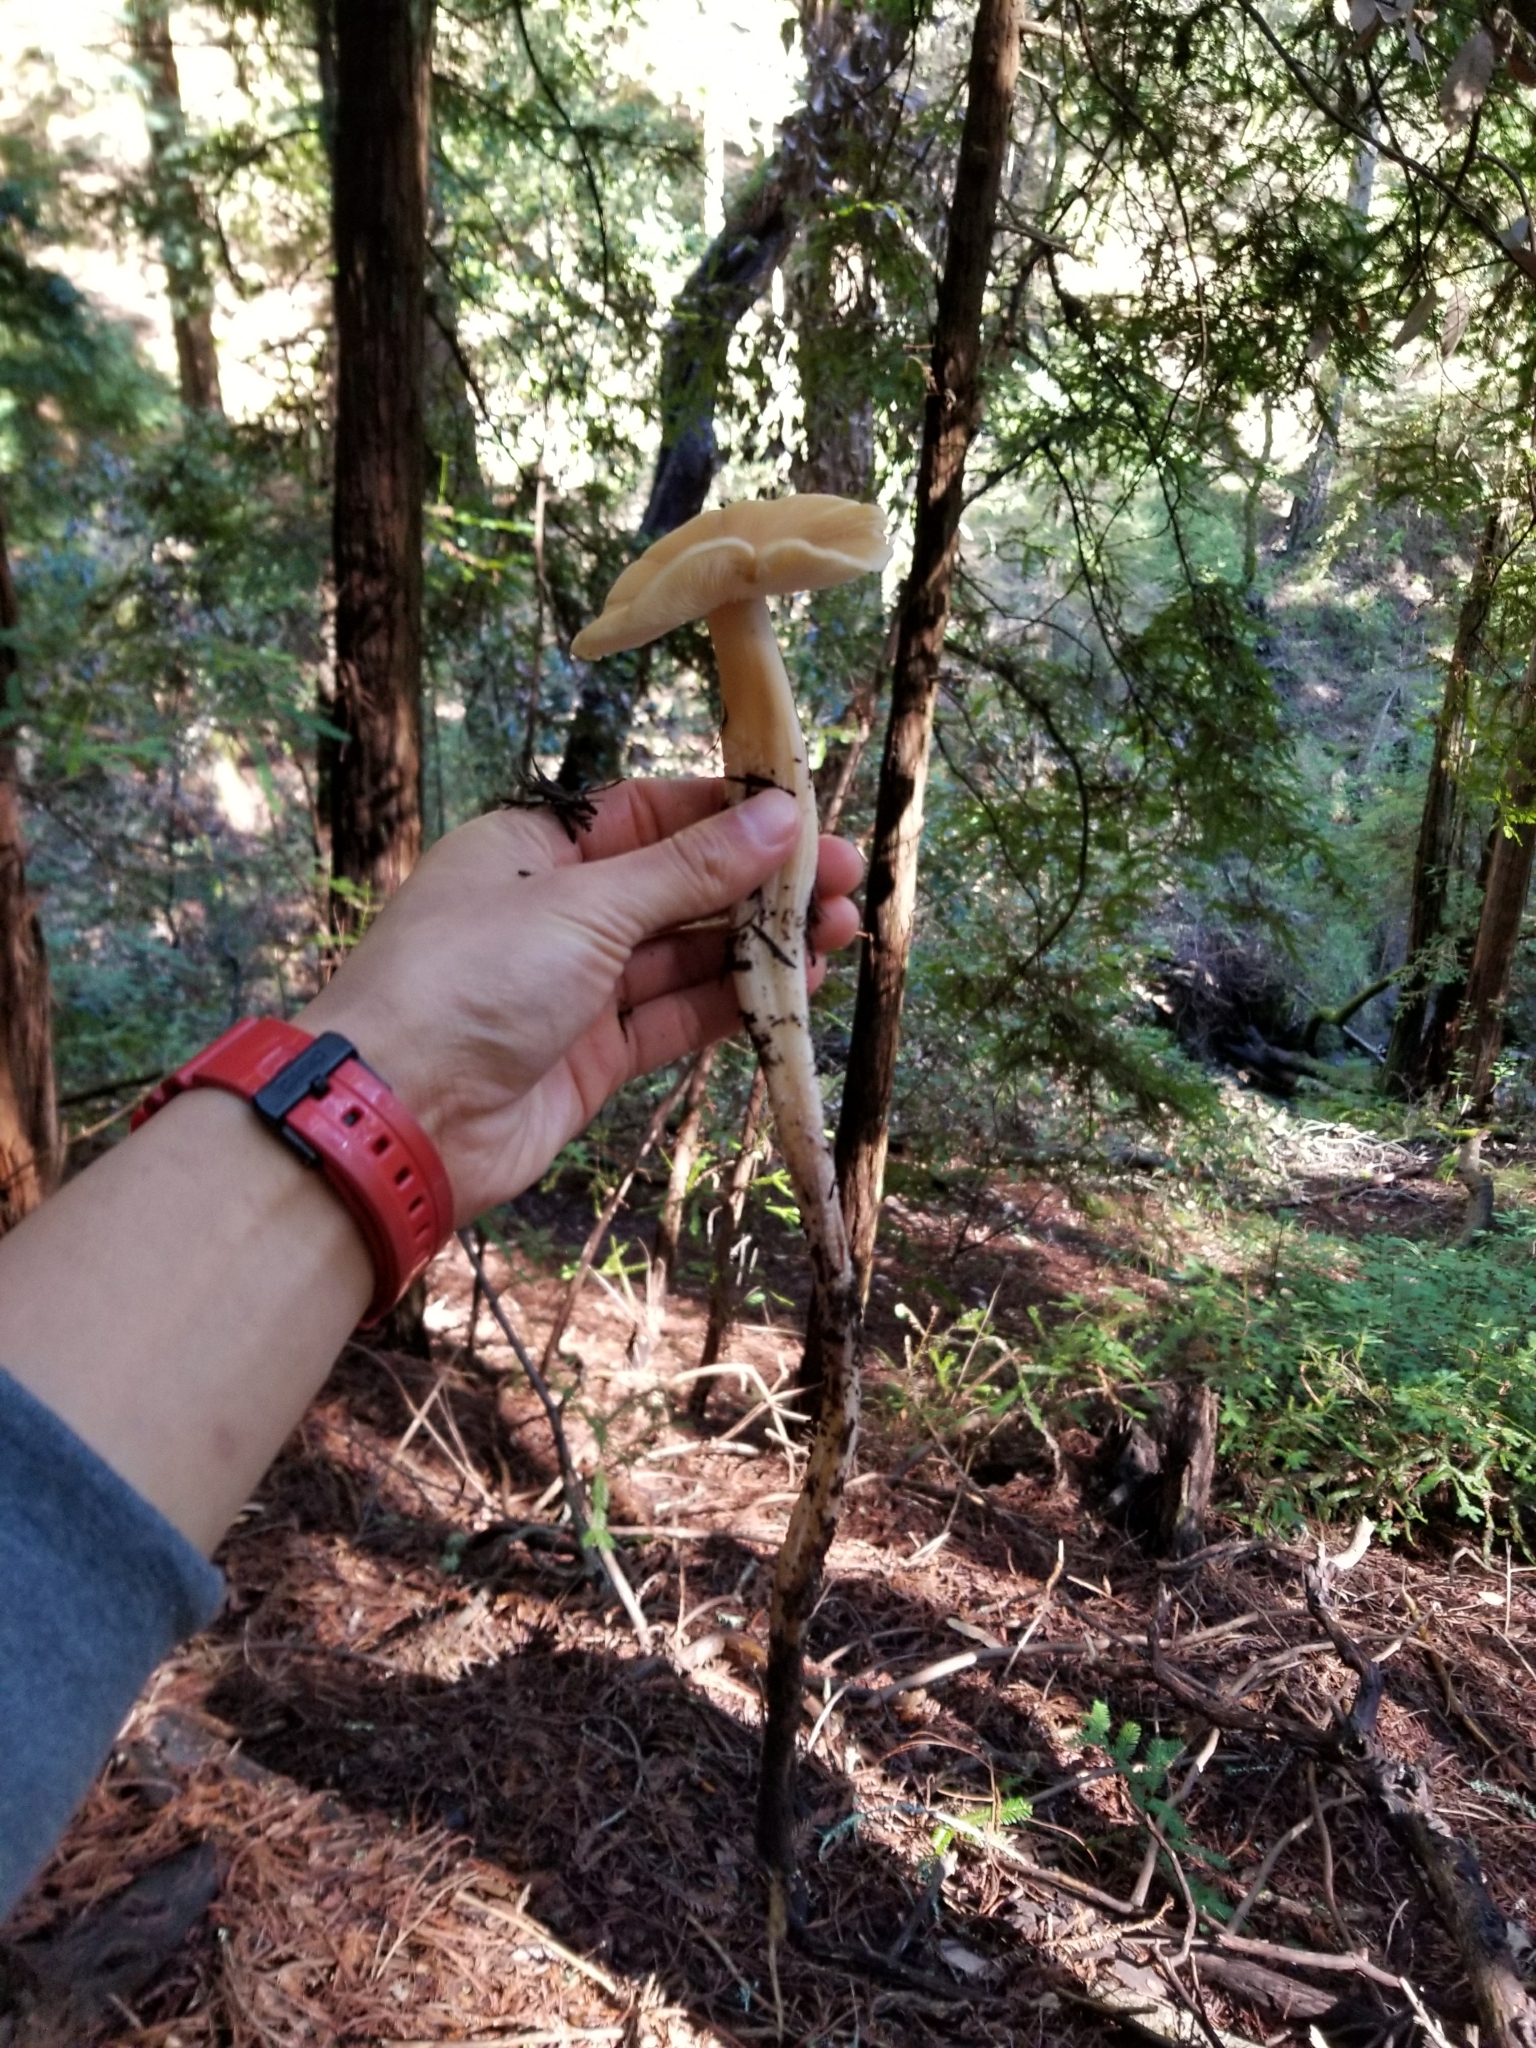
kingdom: Fungi
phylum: Basidiomycota
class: Agaricomycetes
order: Agaricales
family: Tricholomataceae
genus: Caulorhiza
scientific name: Caulorhiza umbonata
